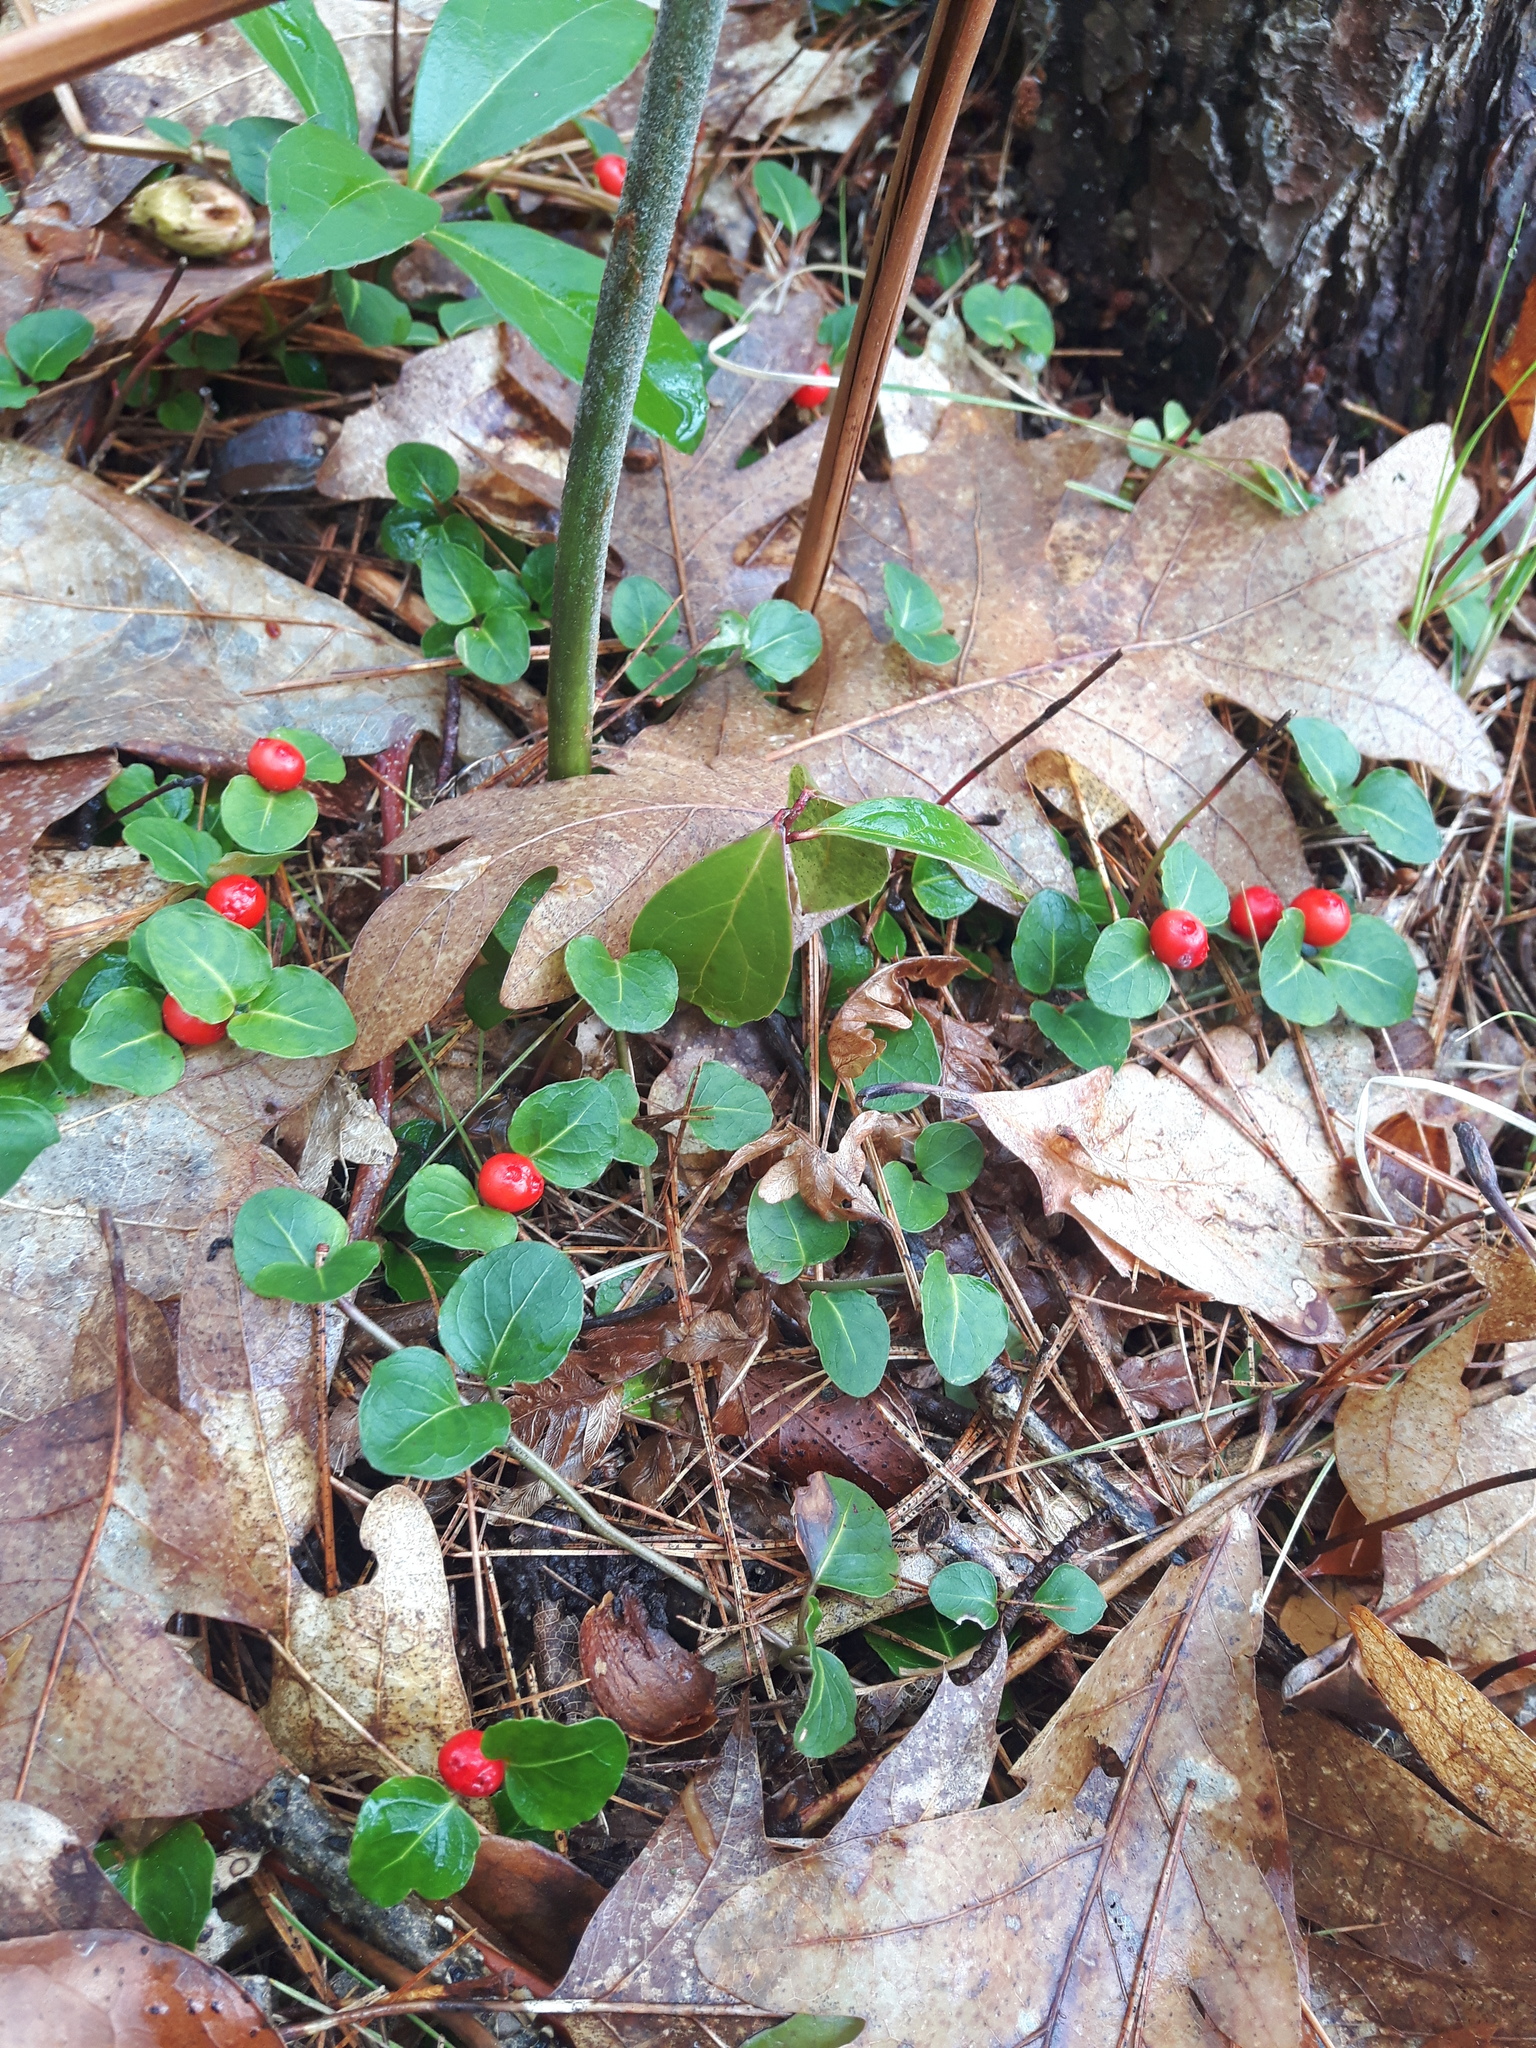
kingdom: Plantae
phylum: Tracheophyta
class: Magnoliopsida
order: Gentianales
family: Rubiaceae
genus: Mitchella
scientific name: Mitchella repens
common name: Partridge-berry
